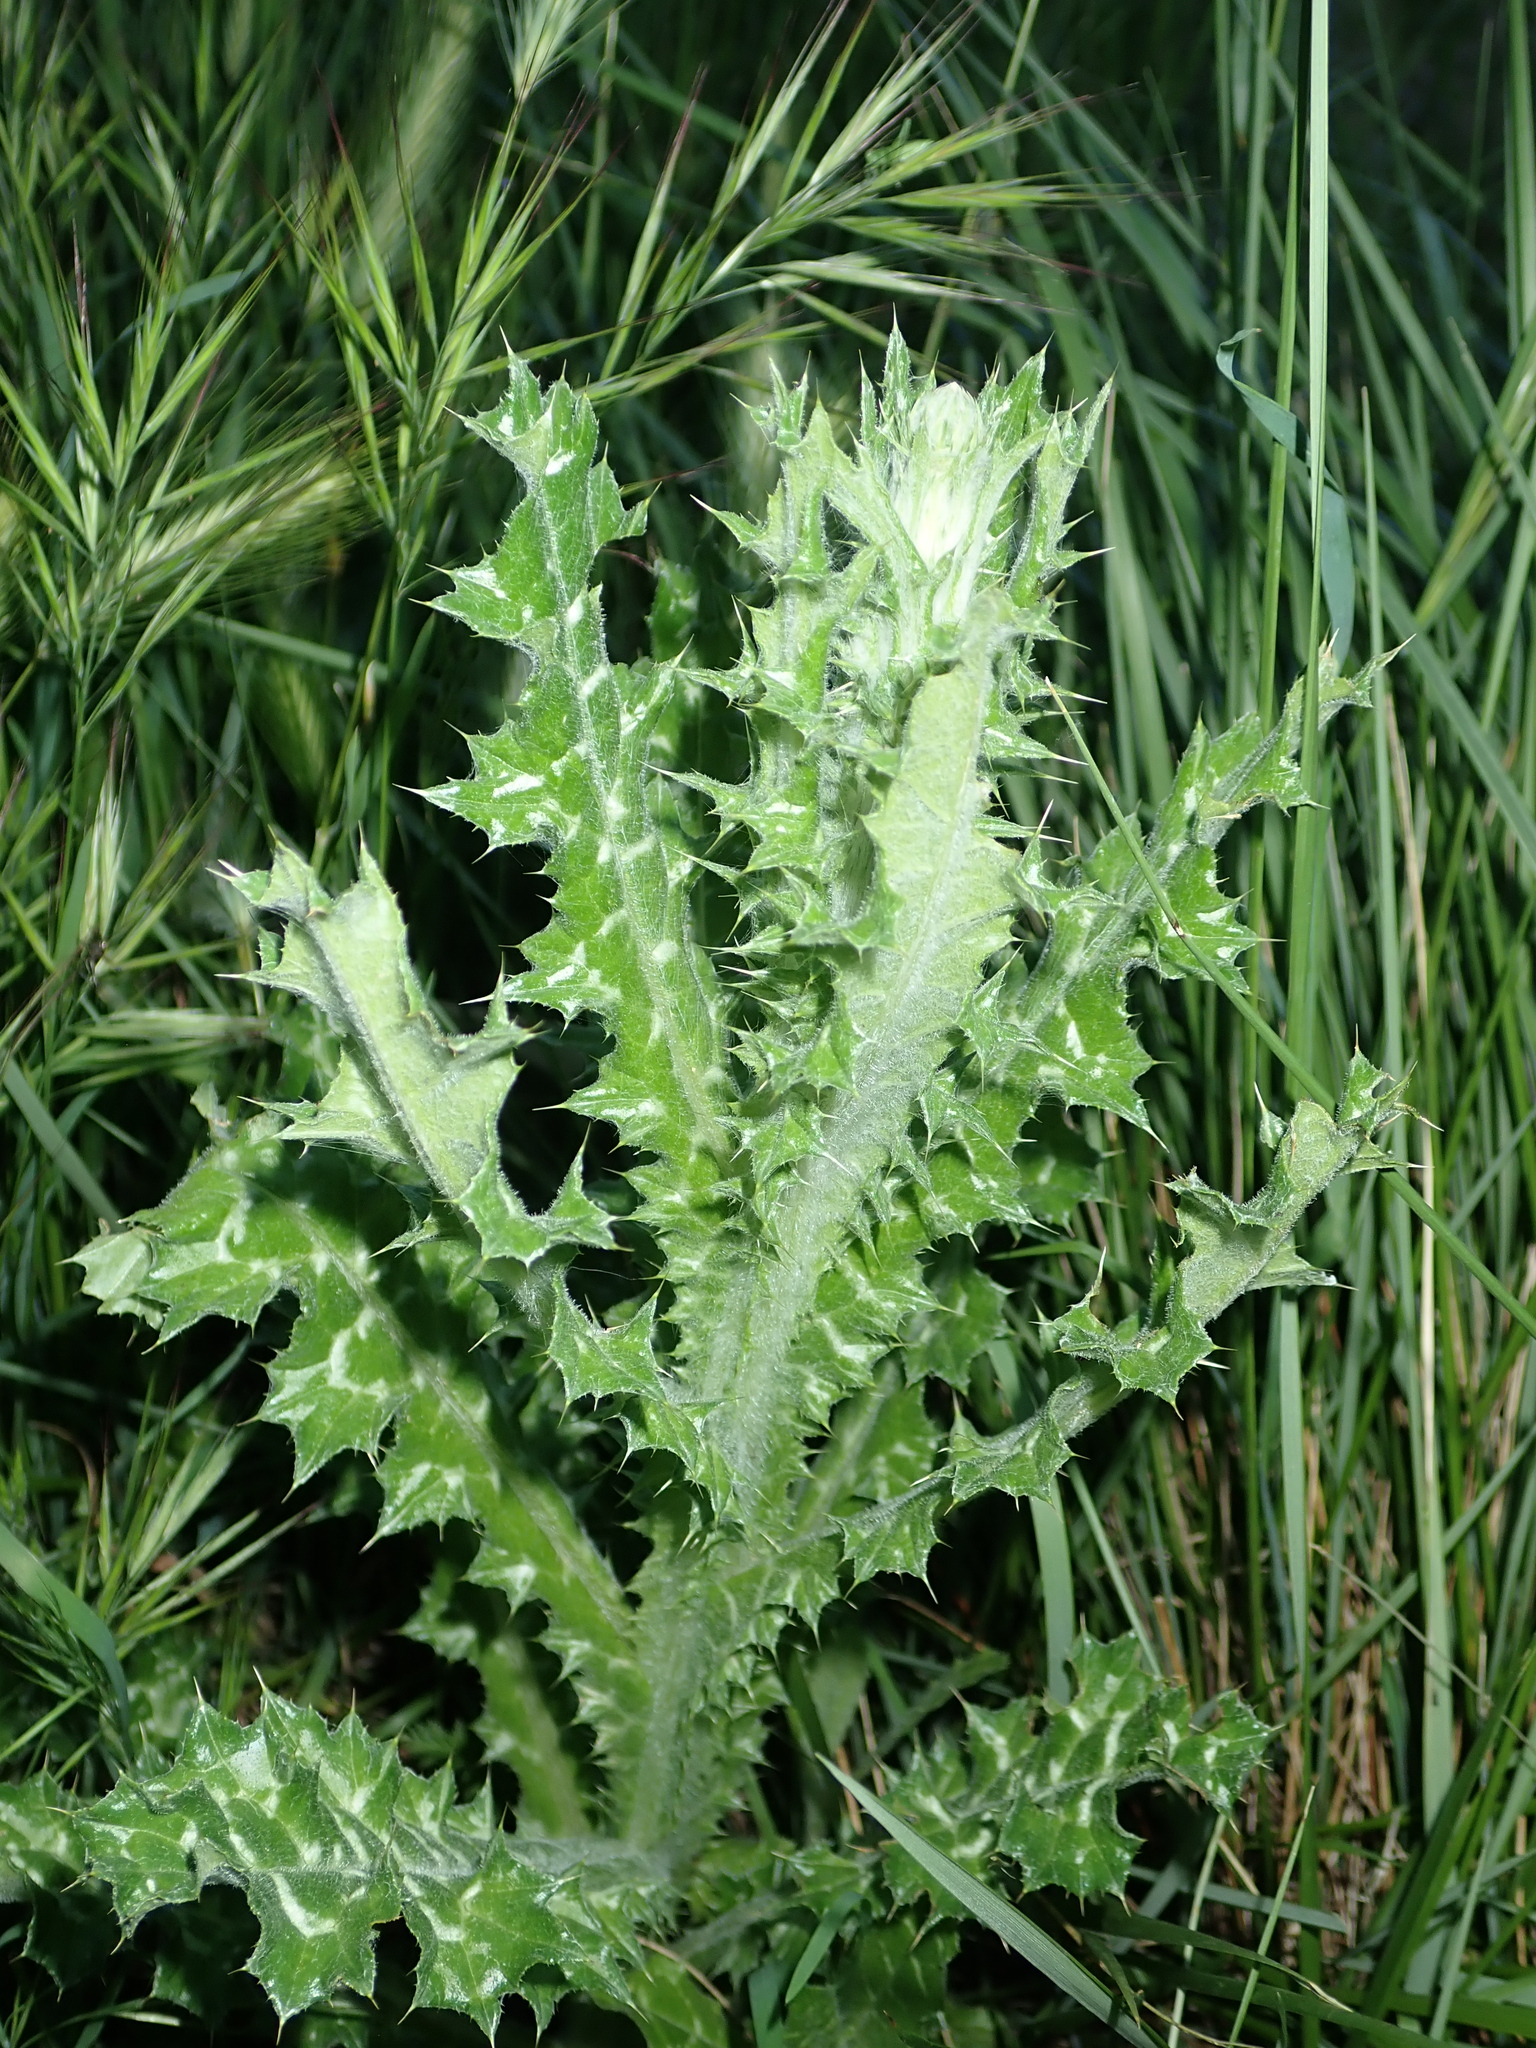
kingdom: Plantae
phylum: Tracheophyta
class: Magnoliopsida
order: Asterales
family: Asteraceae
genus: Tyrimnus
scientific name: Tyrimnus leucographus
